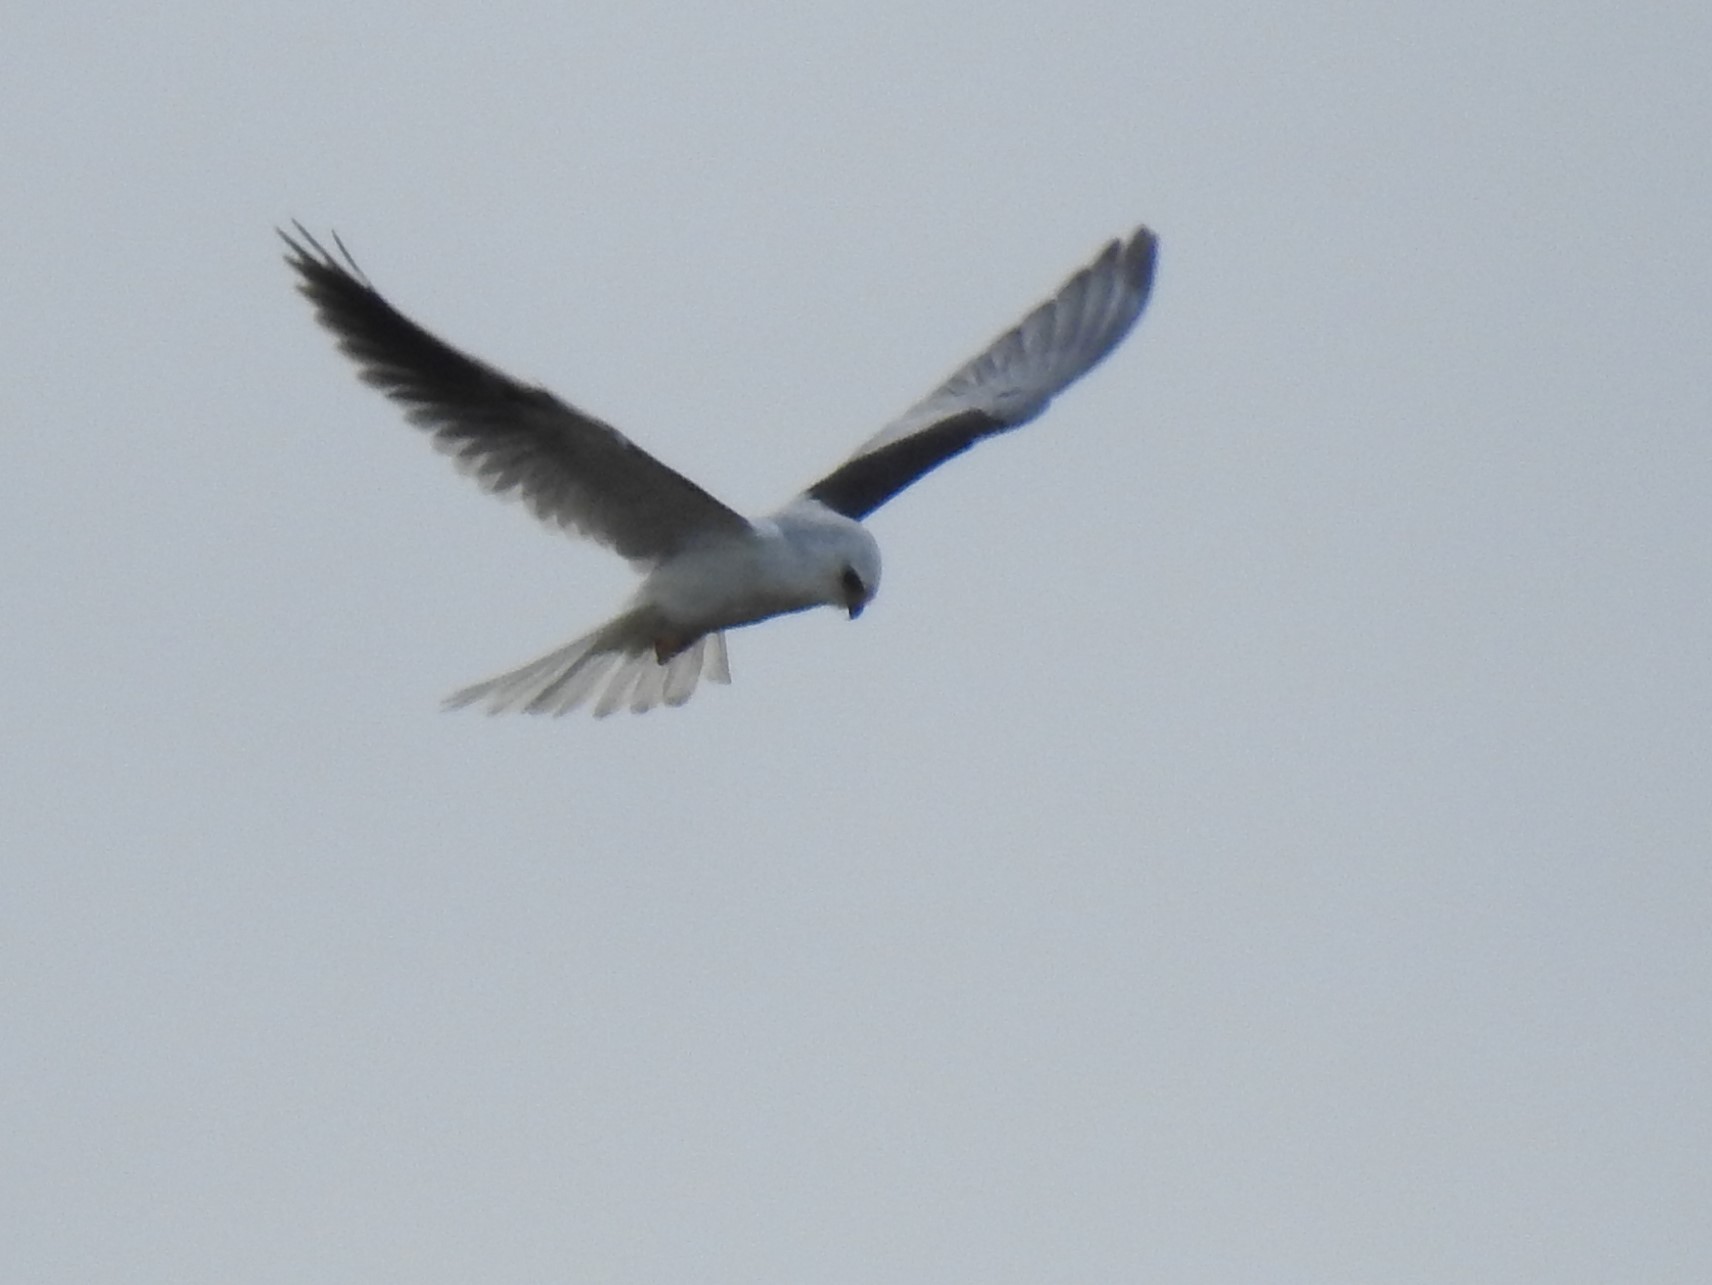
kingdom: Animalia
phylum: Chordata
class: Aves
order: Accipitriformes
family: Accipitridae
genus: Elanus
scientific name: Elanus leucurus
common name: White-tailed kite
